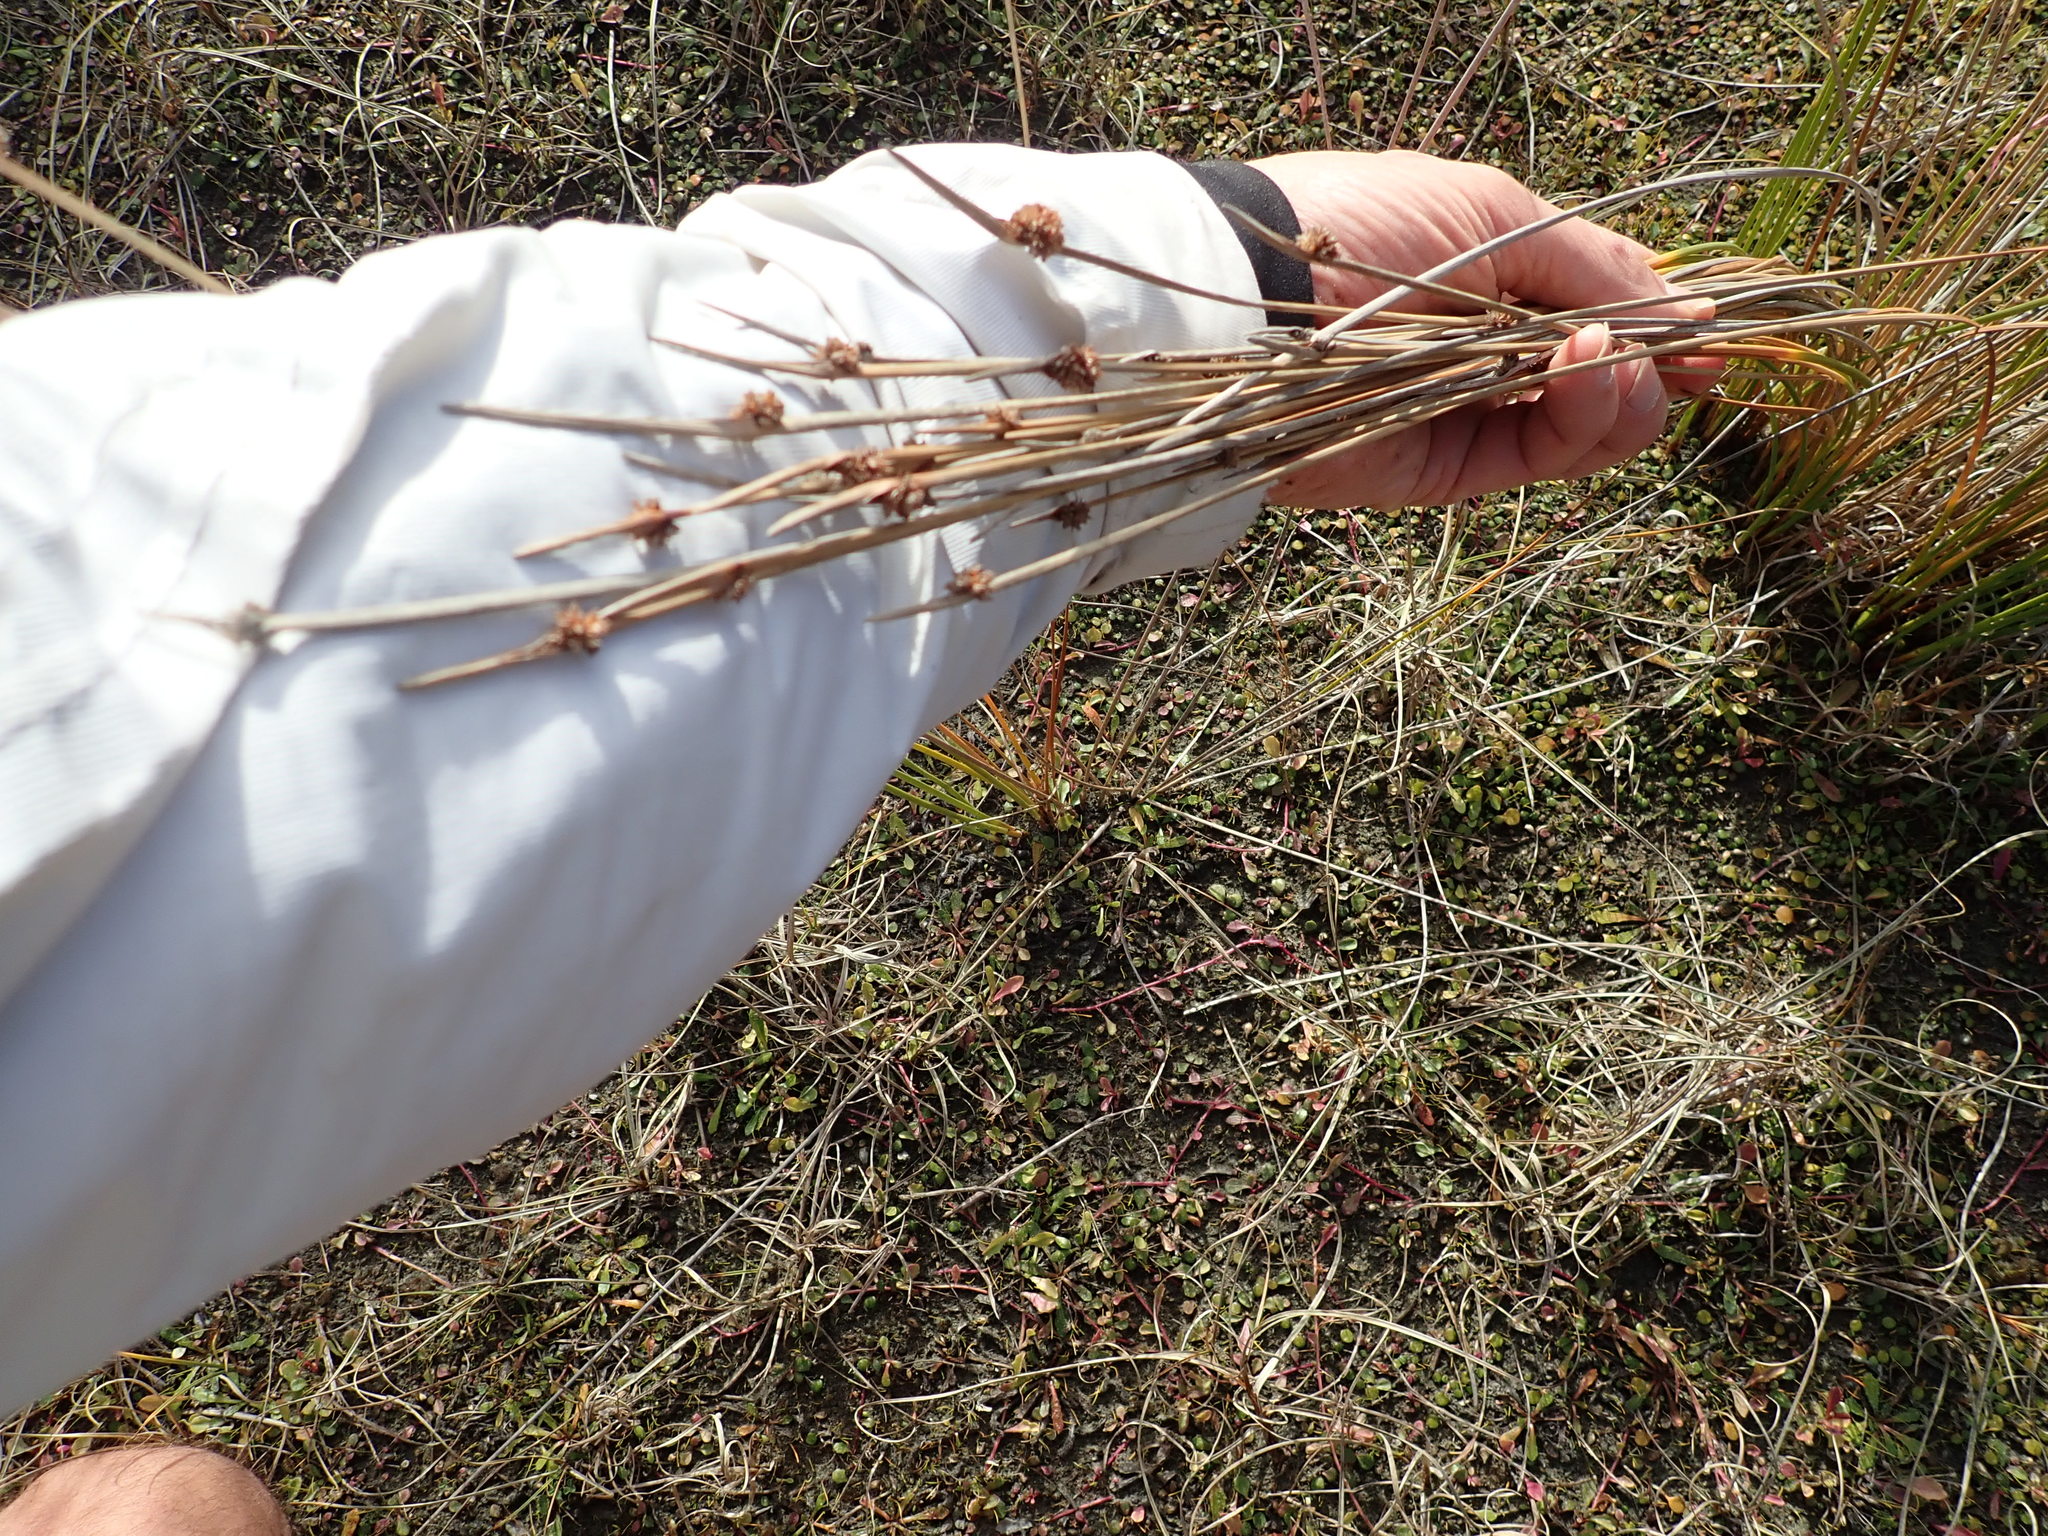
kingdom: Plantae
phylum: Tracheophyta
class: Liliopsida
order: Poales
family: Cyperaceae
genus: Ficinia
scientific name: Ficinia nodosa
